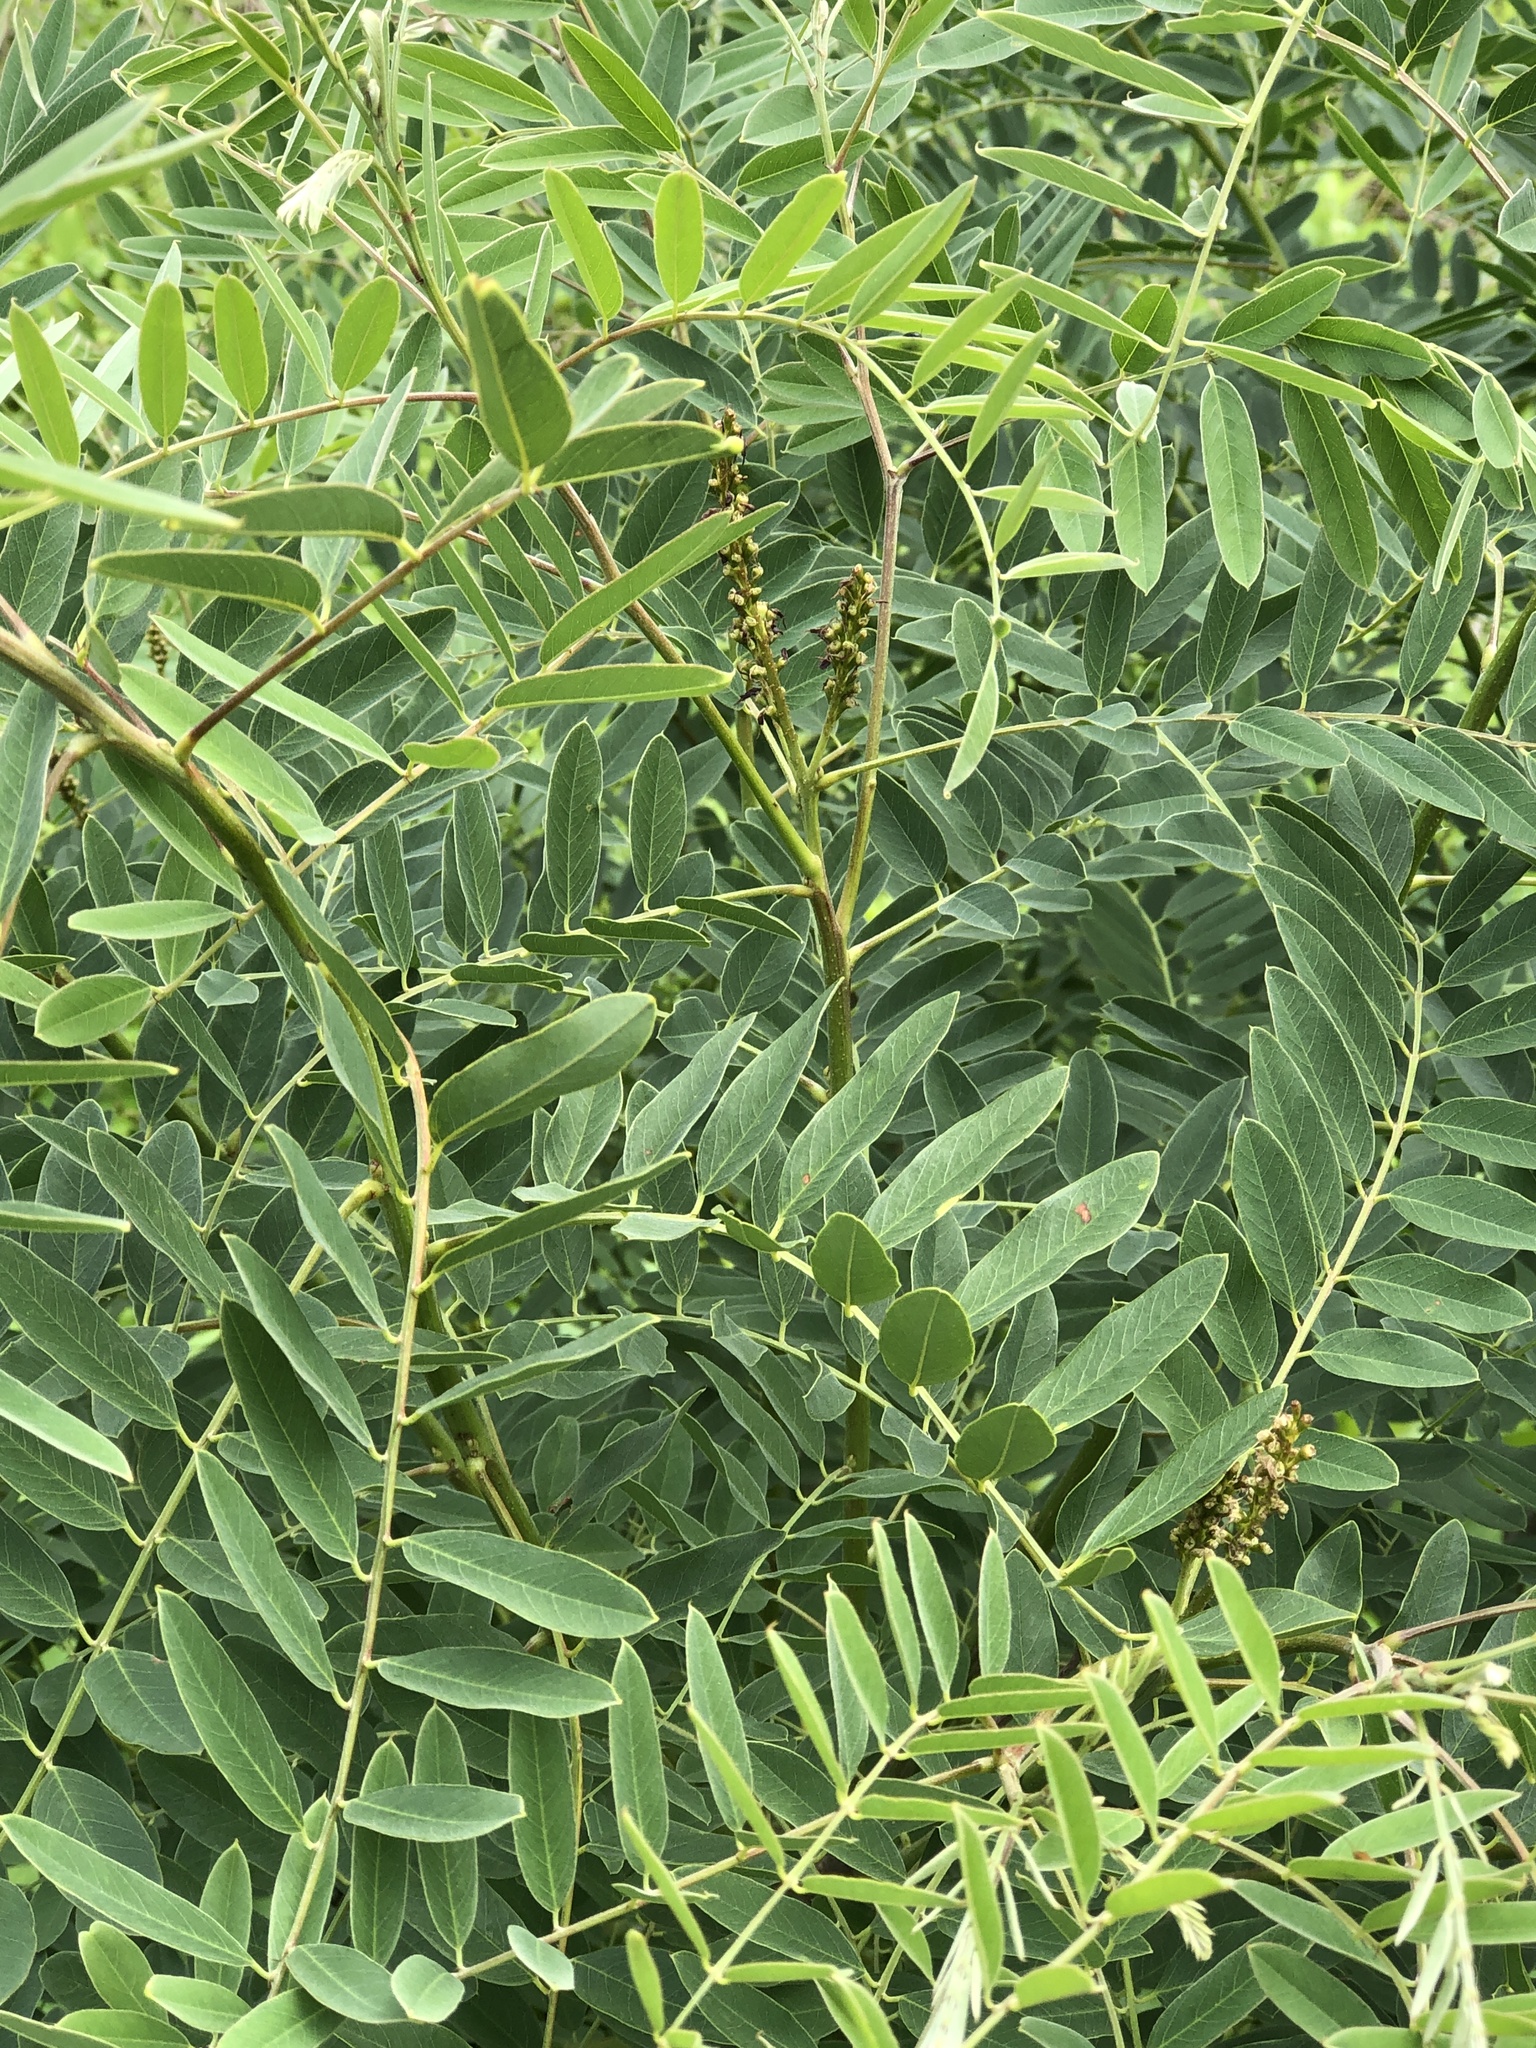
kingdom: Plantae
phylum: Tracheophyta
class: Magnoliopsida
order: Fabales
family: Fabaceae
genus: Amorpha
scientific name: Amorpha fruticosa
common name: False indigo
